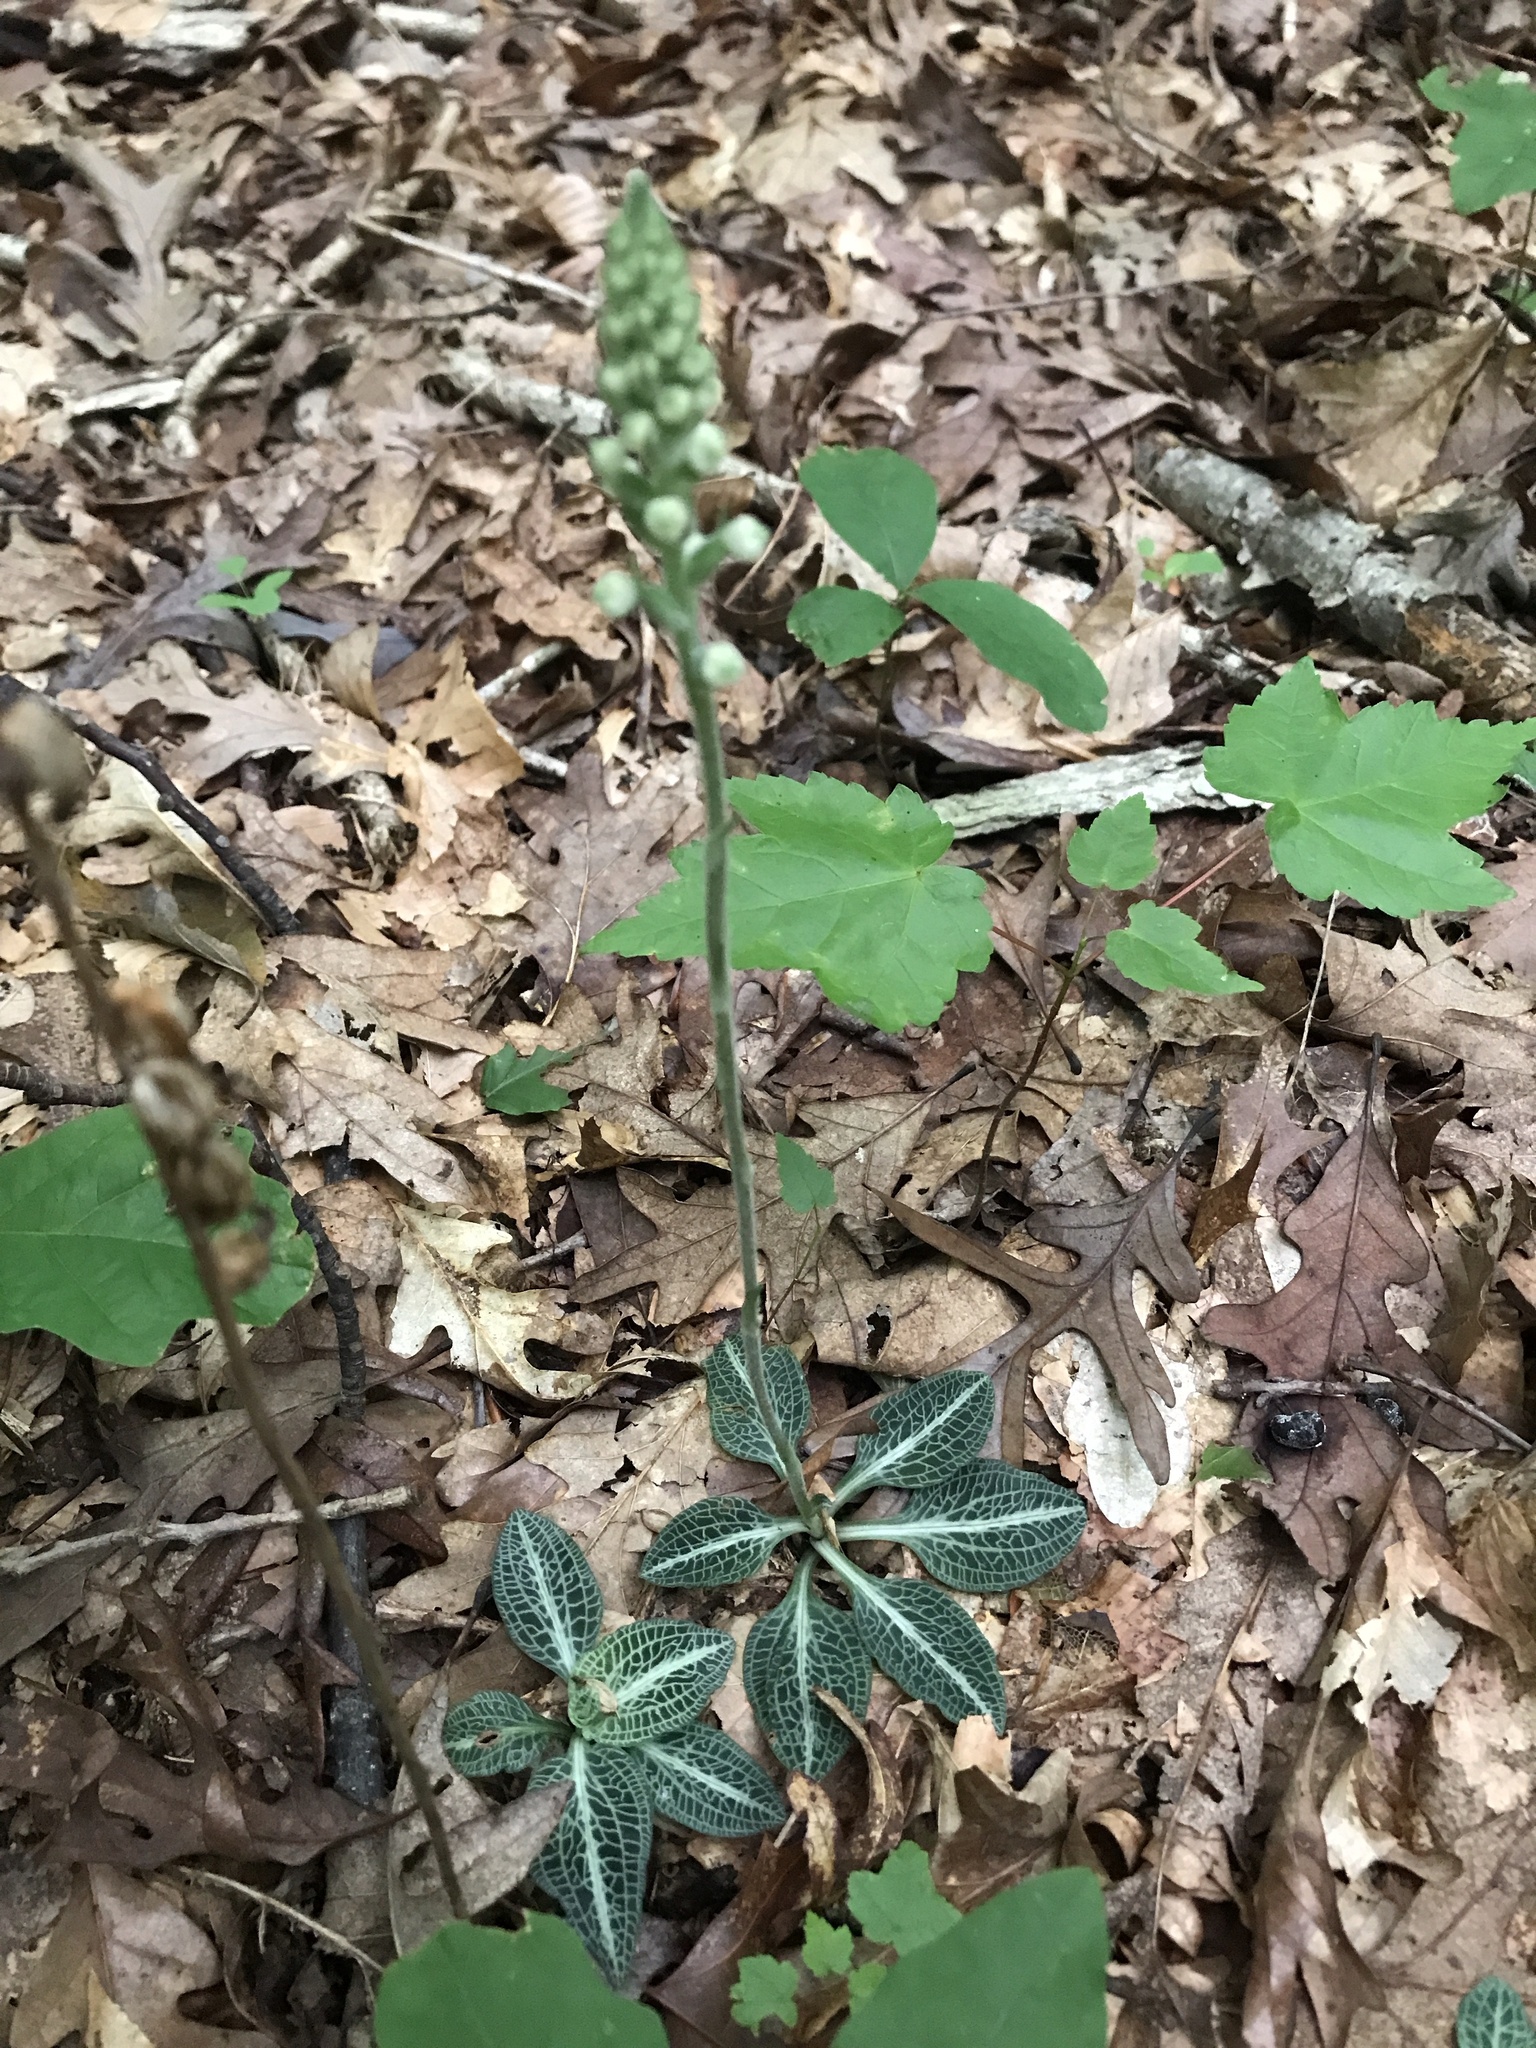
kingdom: Plantae
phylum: Tracheophyta
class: Liliopsida
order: Asparagales
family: Orchidaceae
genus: Goodyera
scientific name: Goodyera pubescens
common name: Downy rattlesnake-plantain
